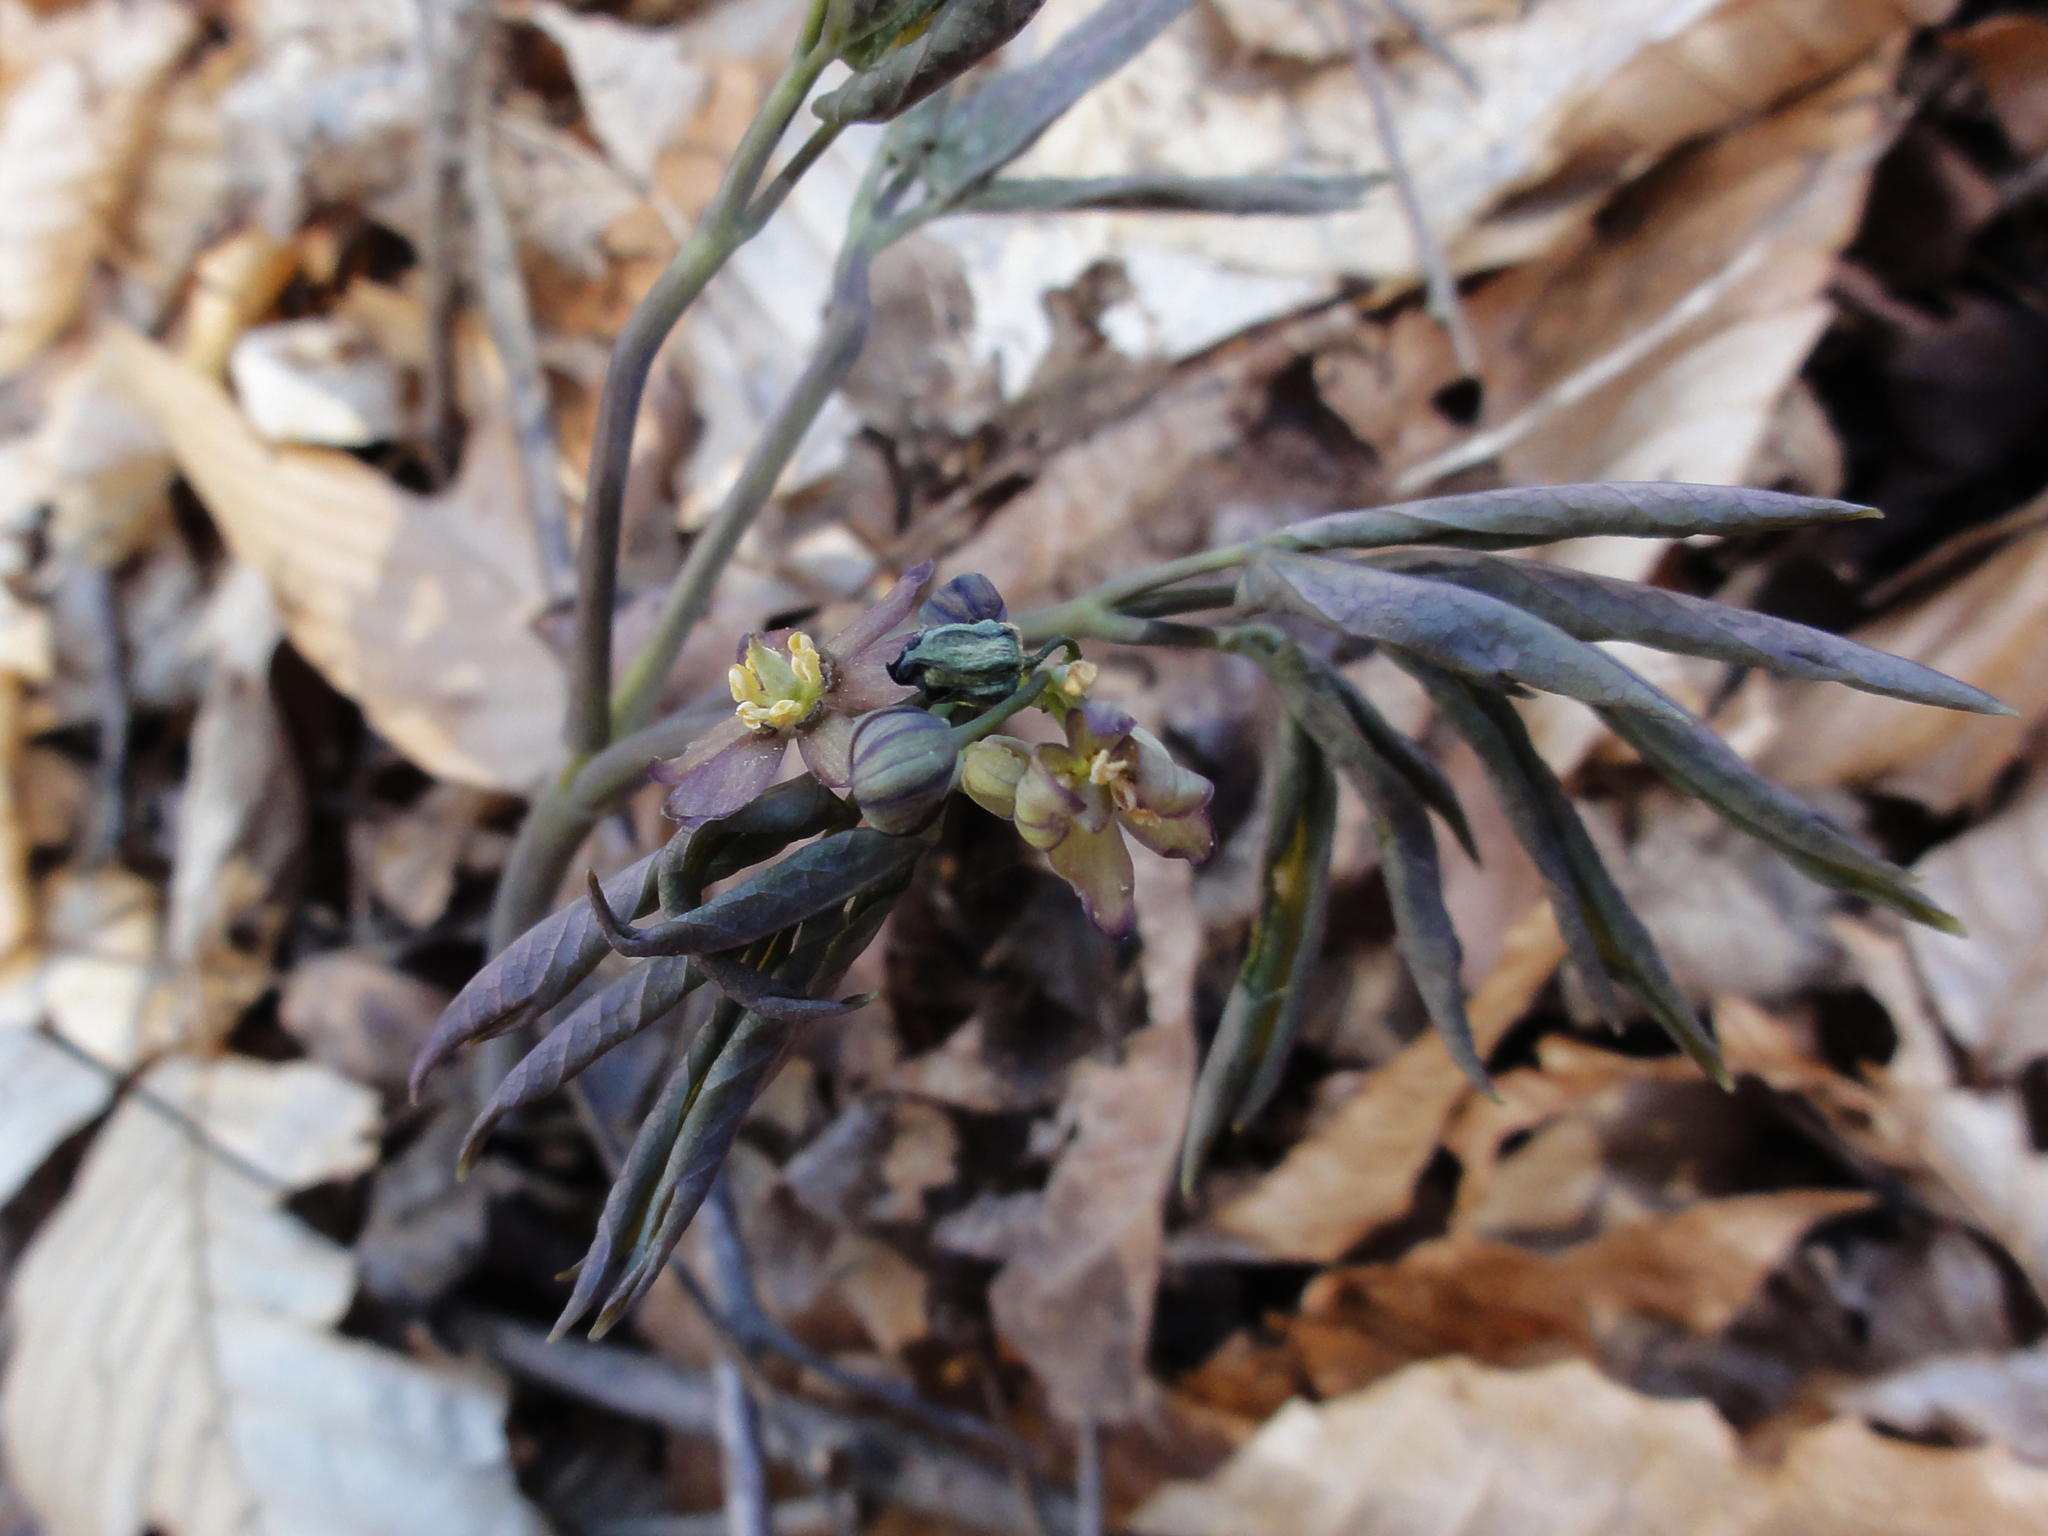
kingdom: Plantae
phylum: Tracheophyta
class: Magnoliopsida
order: Ranunculales
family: Berberidaceae
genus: Caulophyllum
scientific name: Caulophyllum giganteum
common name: Blue cohosh
